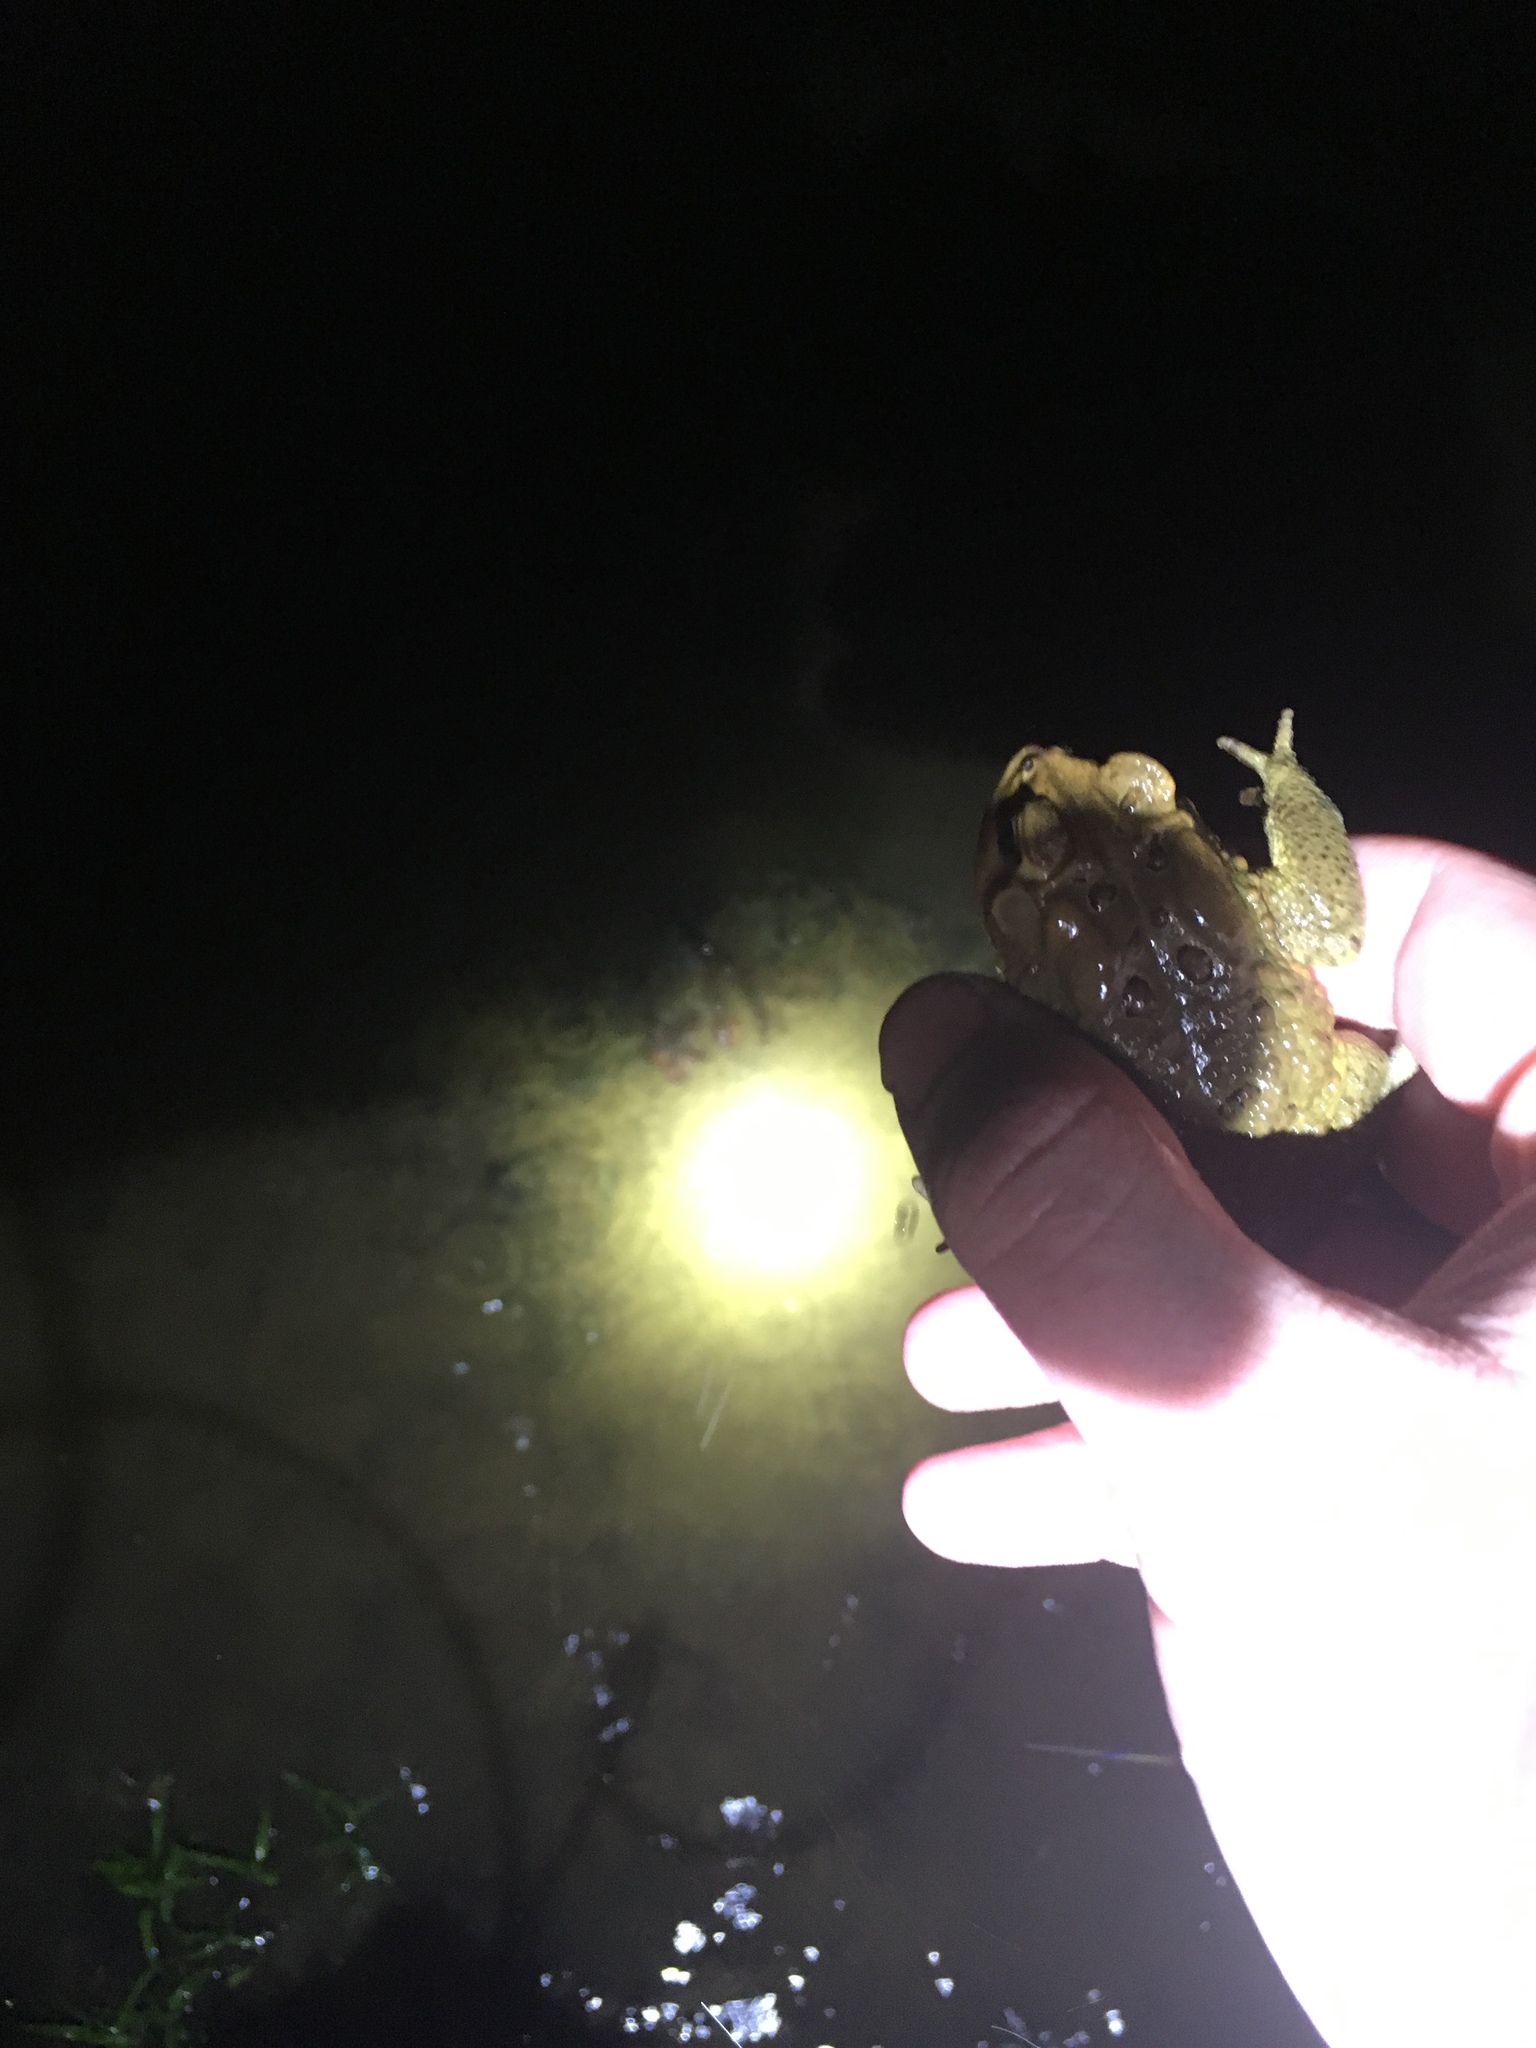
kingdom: Animalia
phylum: Chordata
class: Amphibia
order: Anura
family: Bufonidae
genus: Anaxyrus
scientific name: Anaxyrus americanus
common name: American toad
